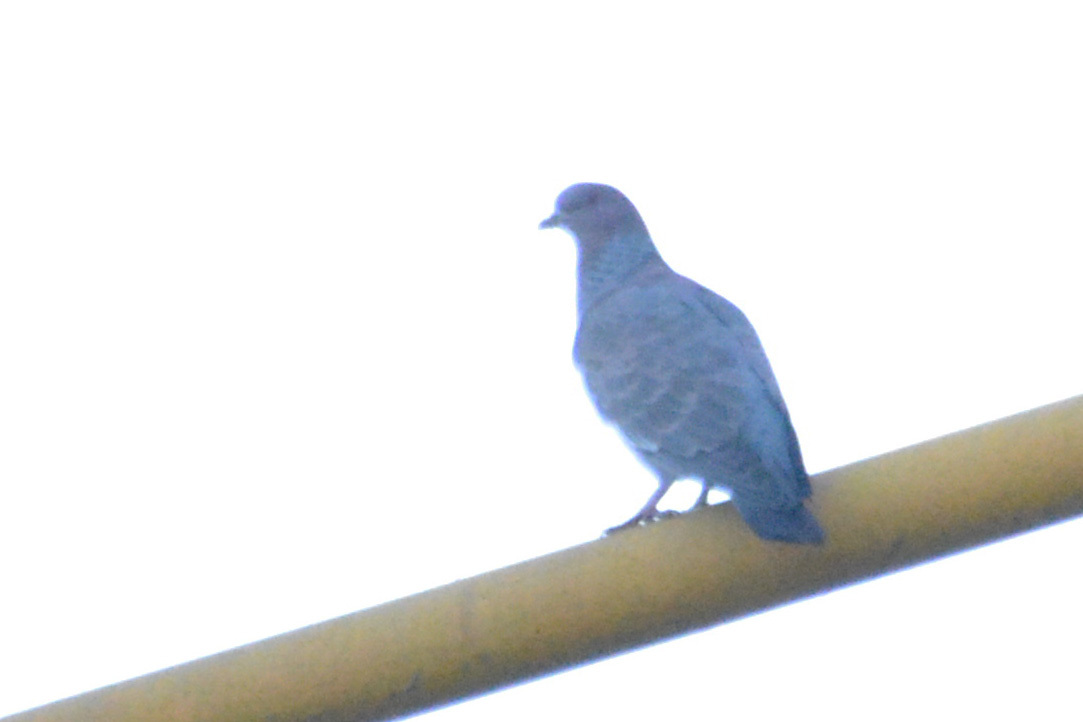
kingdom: Animalia
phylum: Chordata
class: Aves
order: Columbiformes
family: Columbidae
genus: Patagioenas
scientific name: Patagioenas picazuro
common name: Picazuro pigeon
